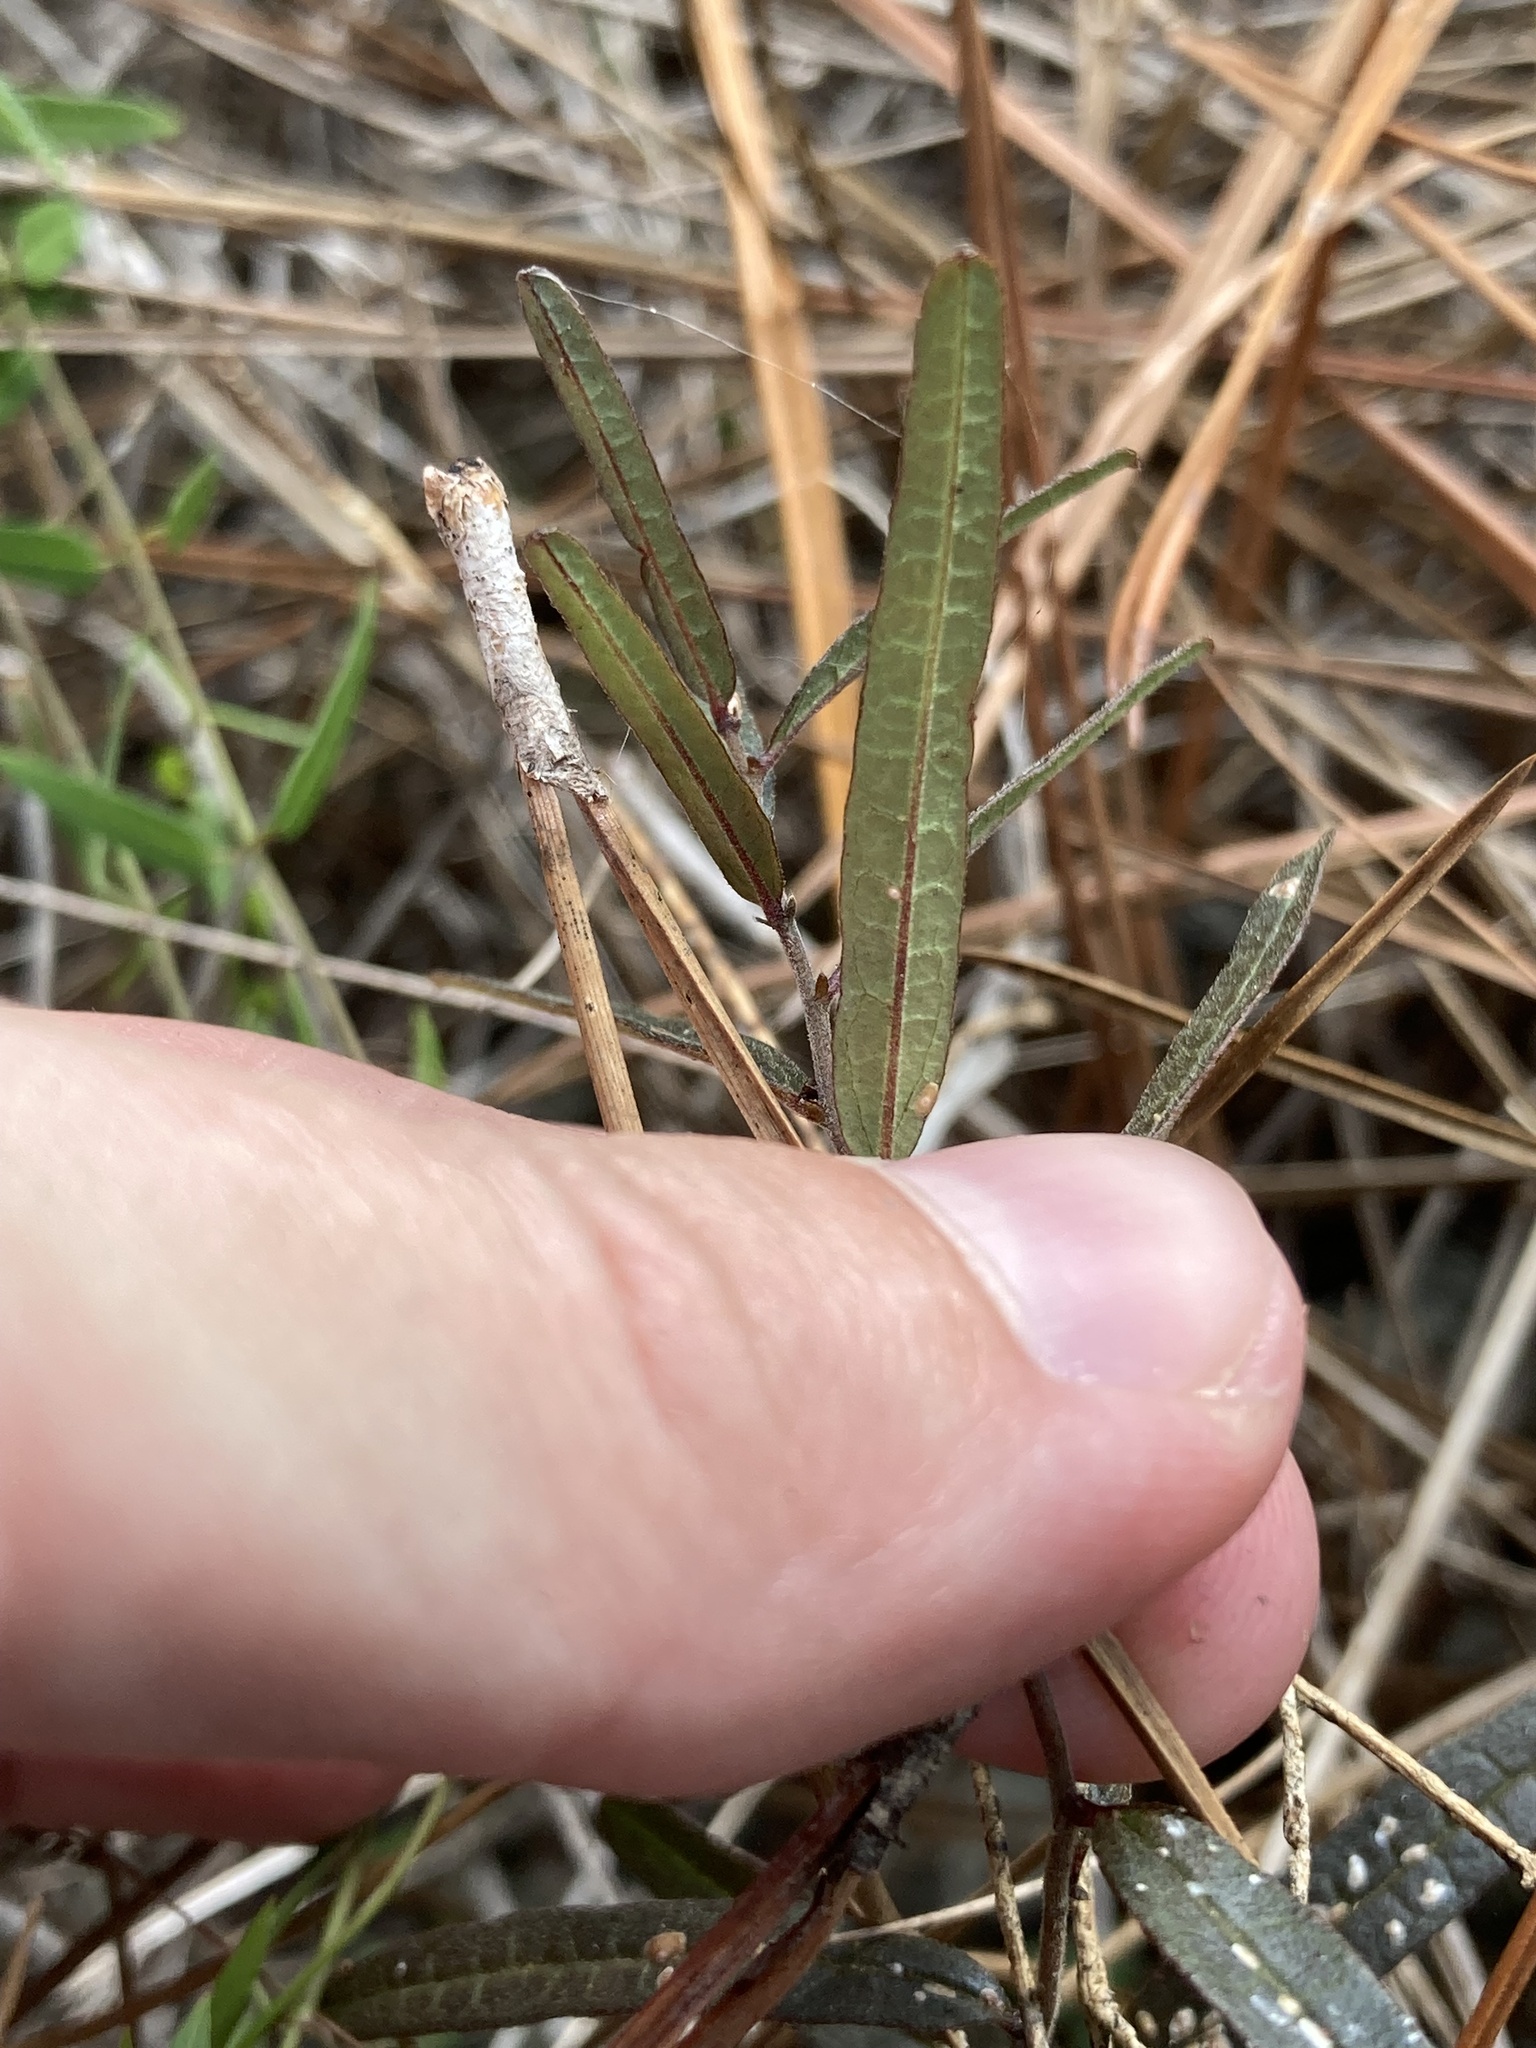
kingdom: Plantae
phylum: Tracheophyta
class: Magnoliopsida
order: Malpighiales
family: Euphorbiaceae
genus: Tragia
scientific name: Tragia urens
